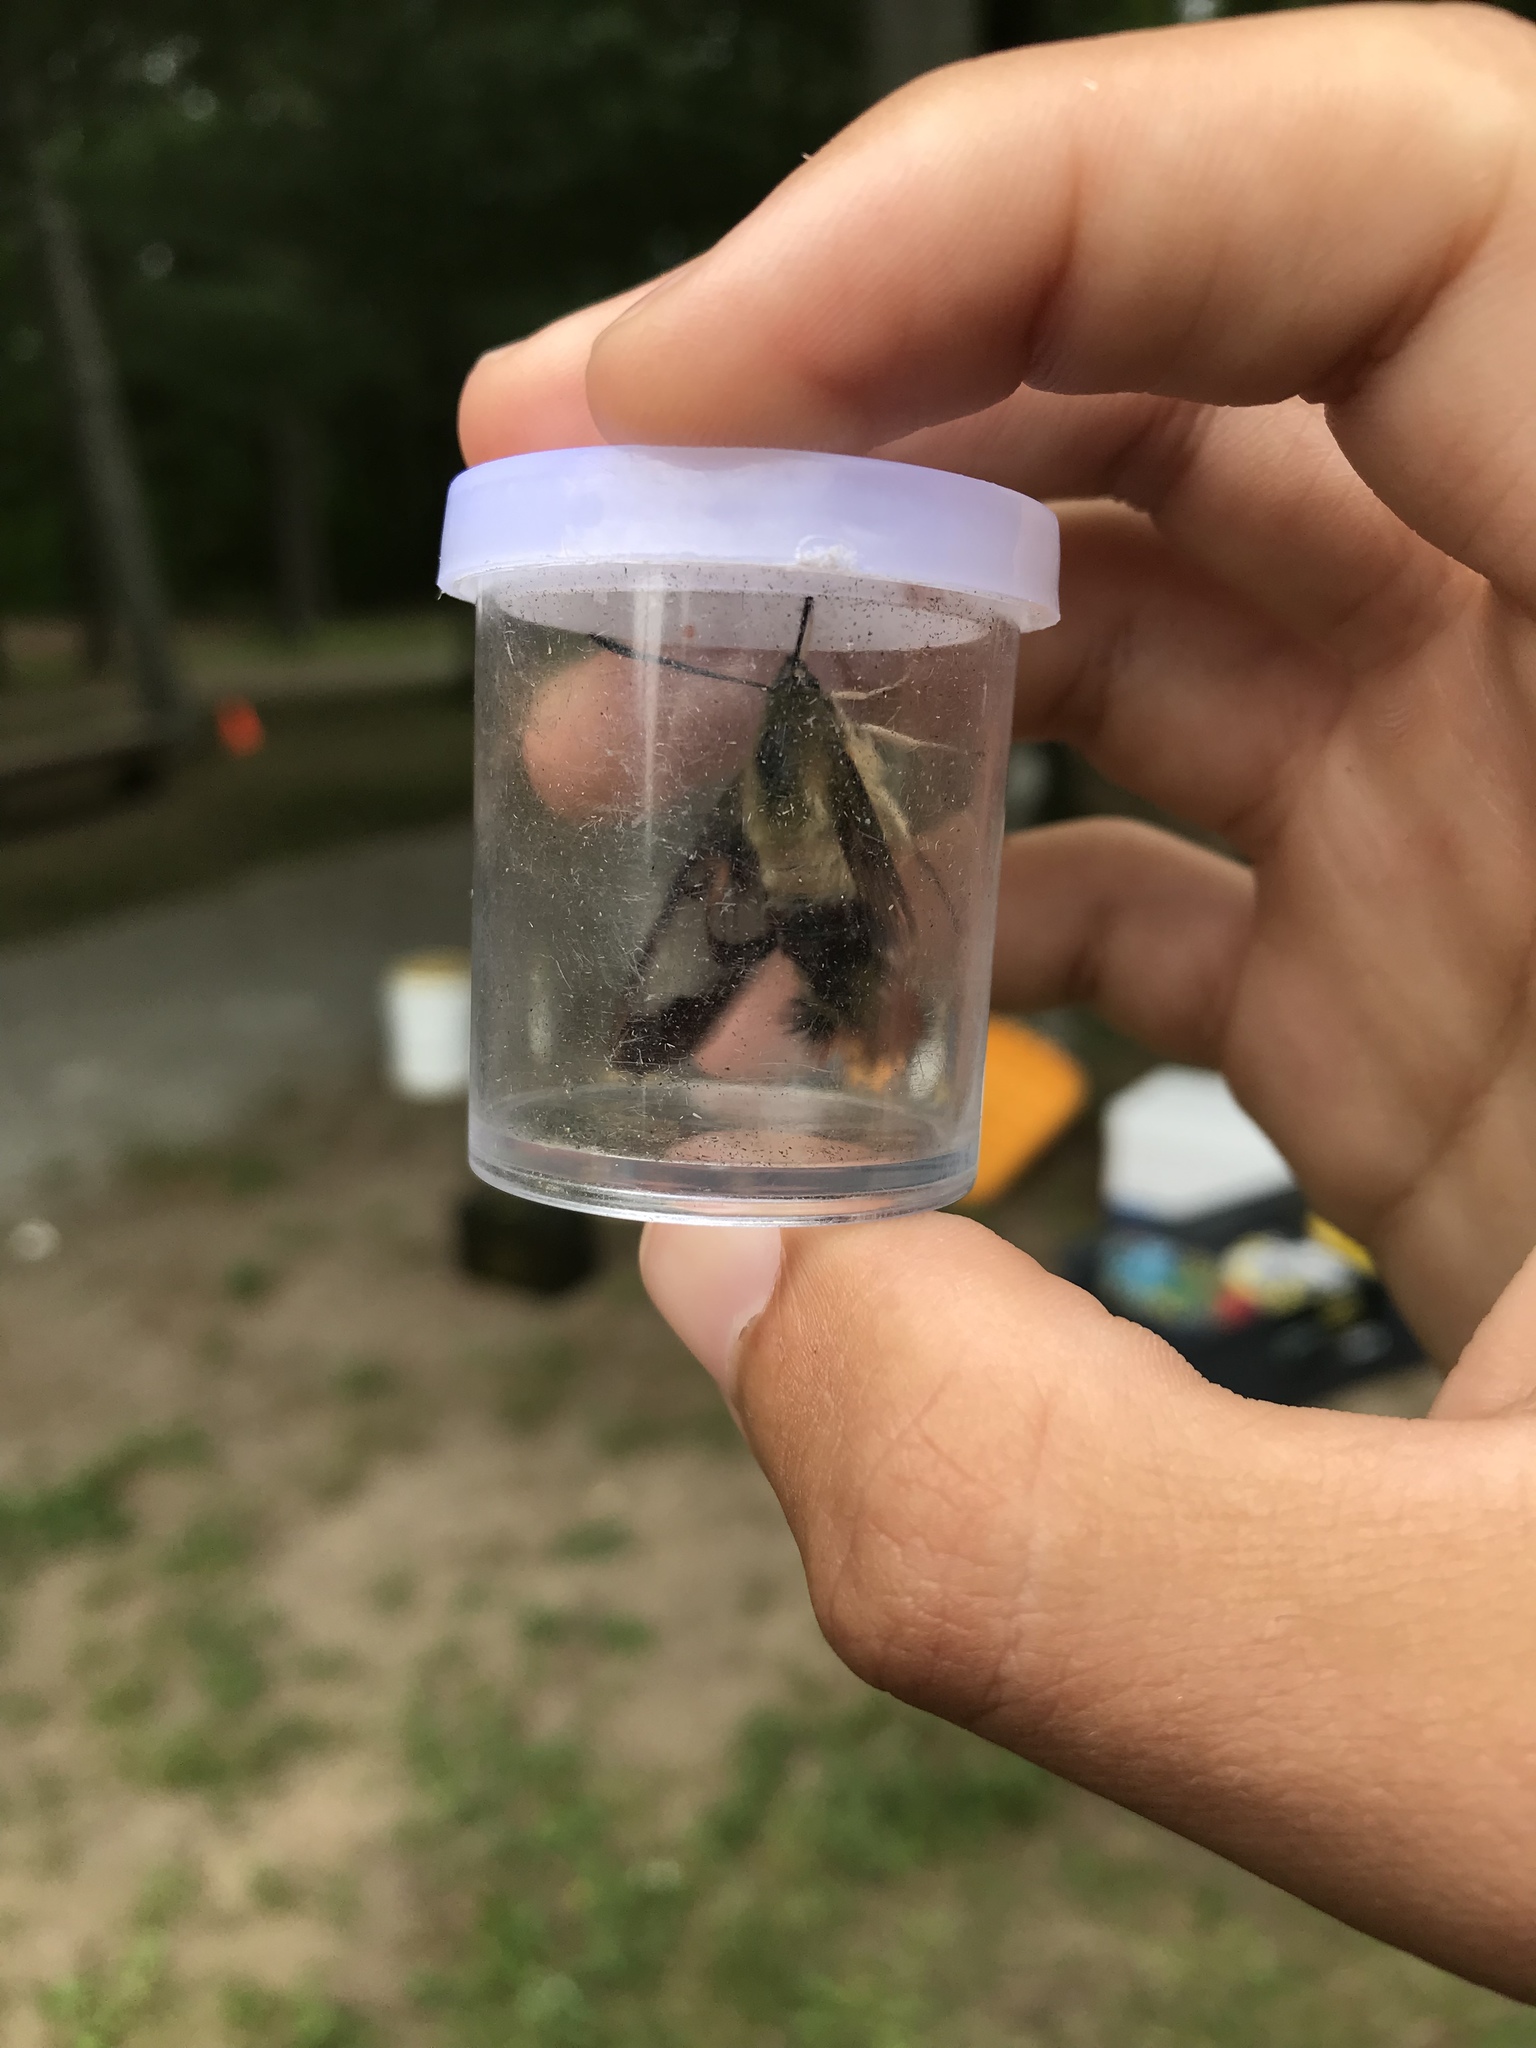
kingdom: Animalia
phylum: Arthropoda
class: Insecta
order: Lepidoptera
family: Sphingidae
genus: Hemaris
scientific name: Hemaris thysbe
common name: Common clear-wing
